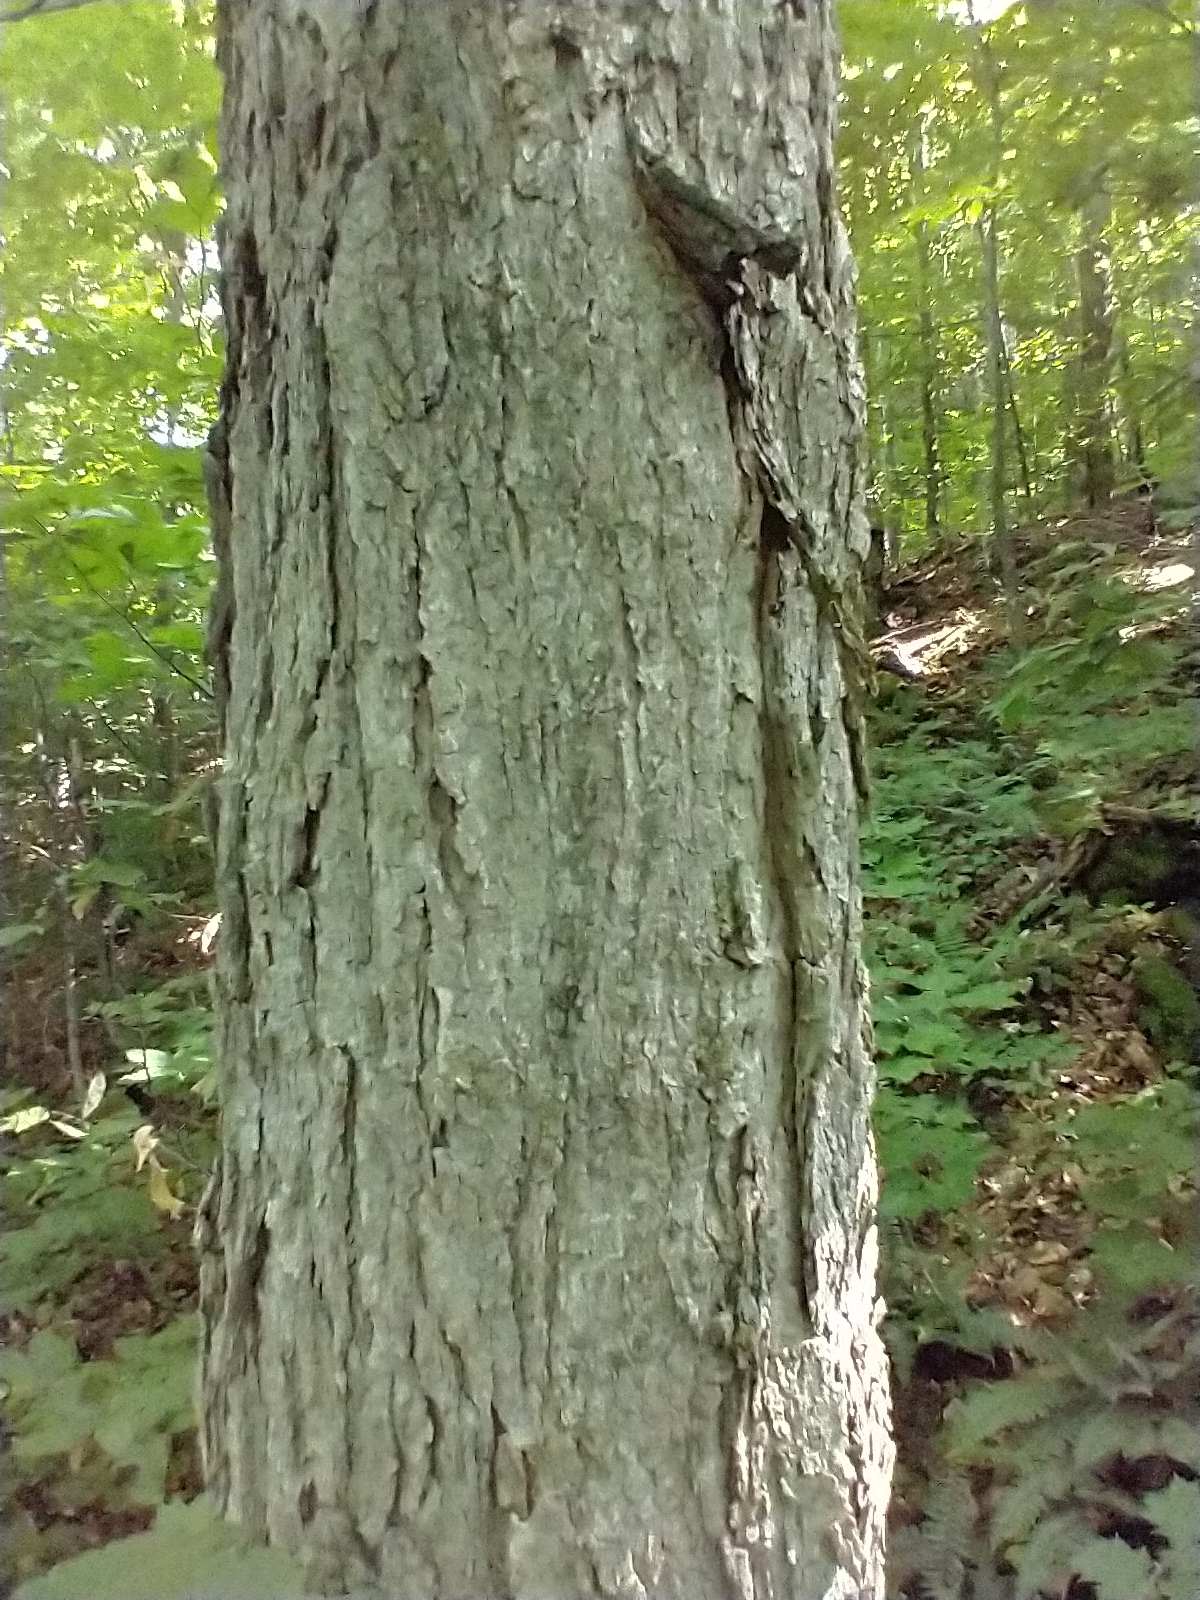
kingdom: Plantae
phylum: Tracheophyta
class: Magnoliopsida
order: Sapindales
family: Sapindaceae
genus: Acer
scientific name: Acer saccharum
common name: Sugar maple
